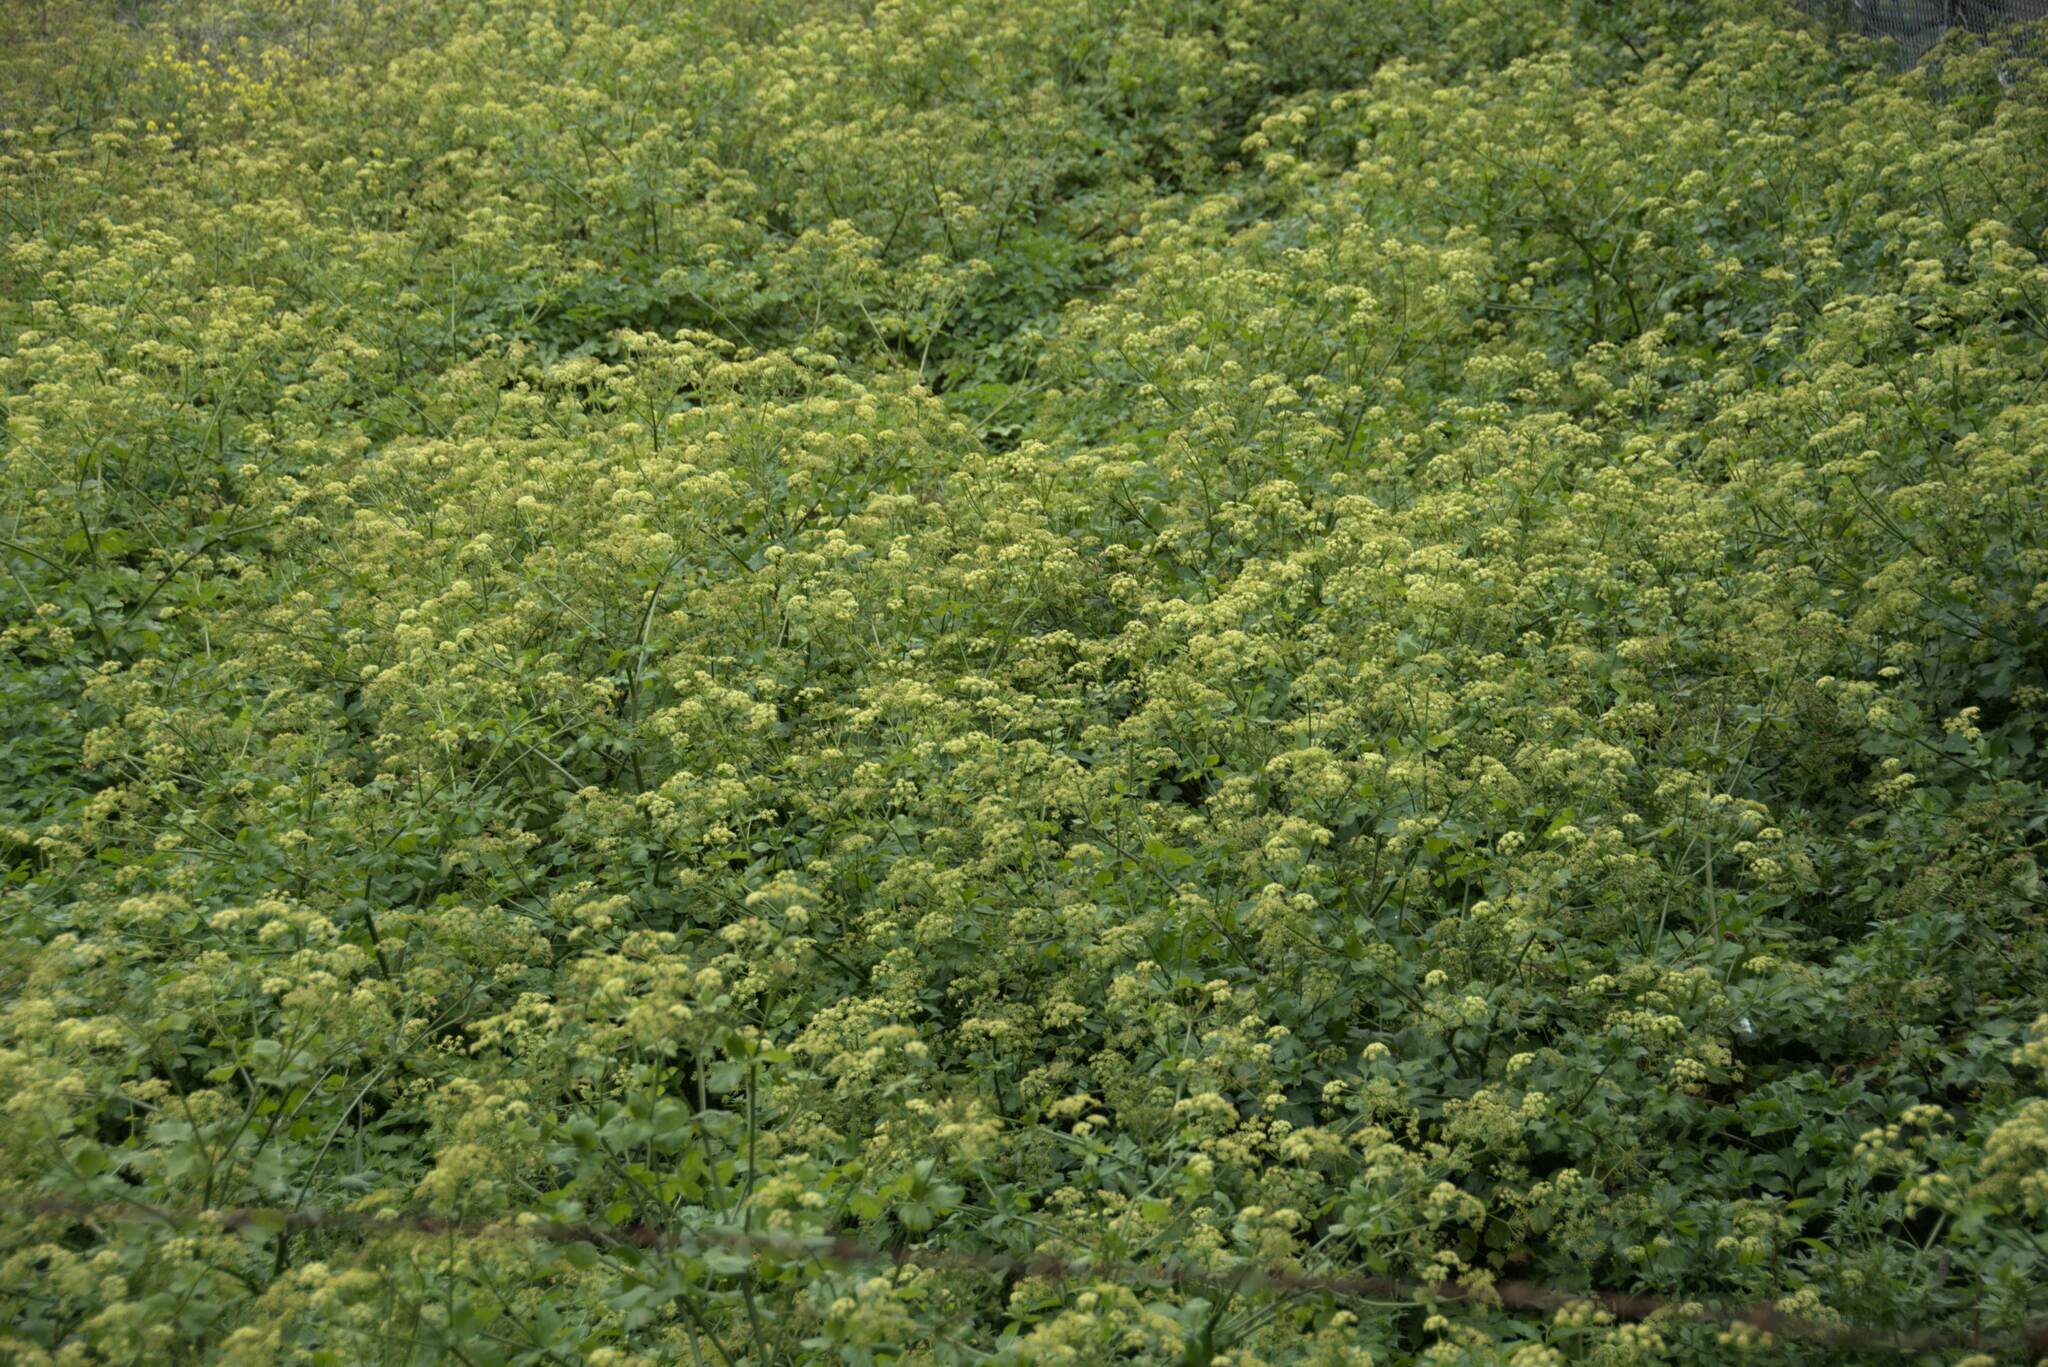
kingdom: Plantae
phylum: Tracheophyta
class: Magnoliopsida
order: Apiales
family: Apiaceae
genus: Smyrnium
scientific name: Smyrnium olusatrum
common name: Alexanders
